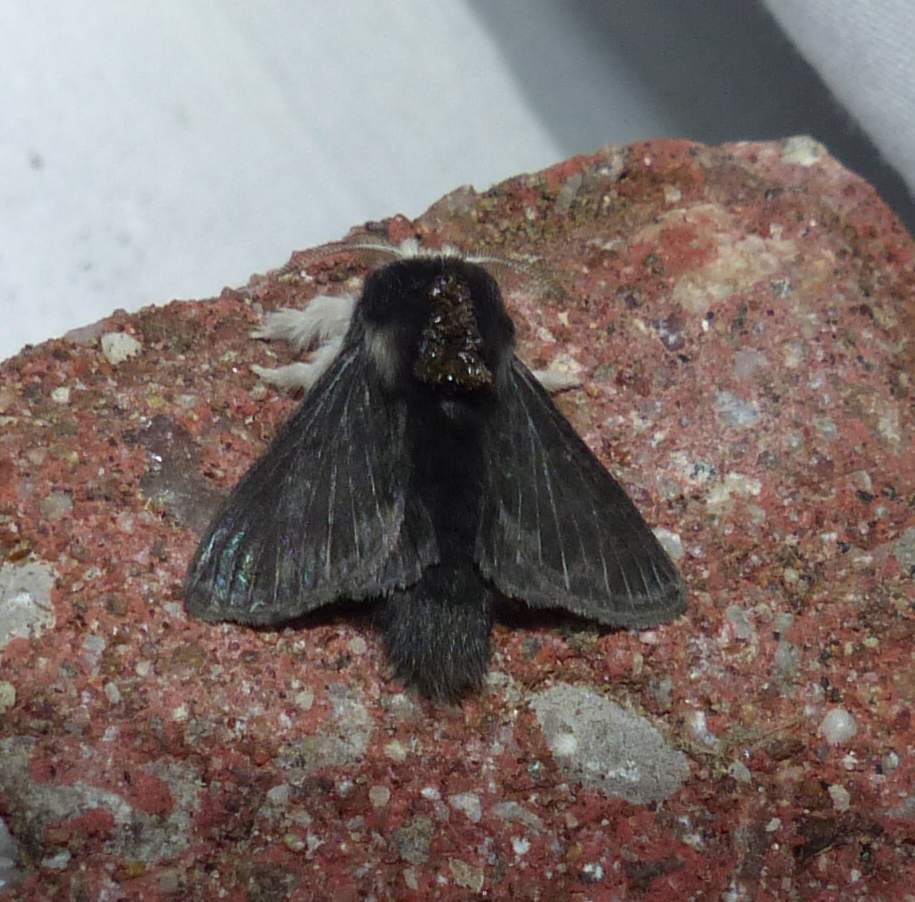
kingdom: Animalia
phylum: Arthropoda
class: Insecta
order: Lepidoptera
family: Lasiocampidae
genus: Tolype
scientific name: Tolype laricis
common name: Larch tolype moth
